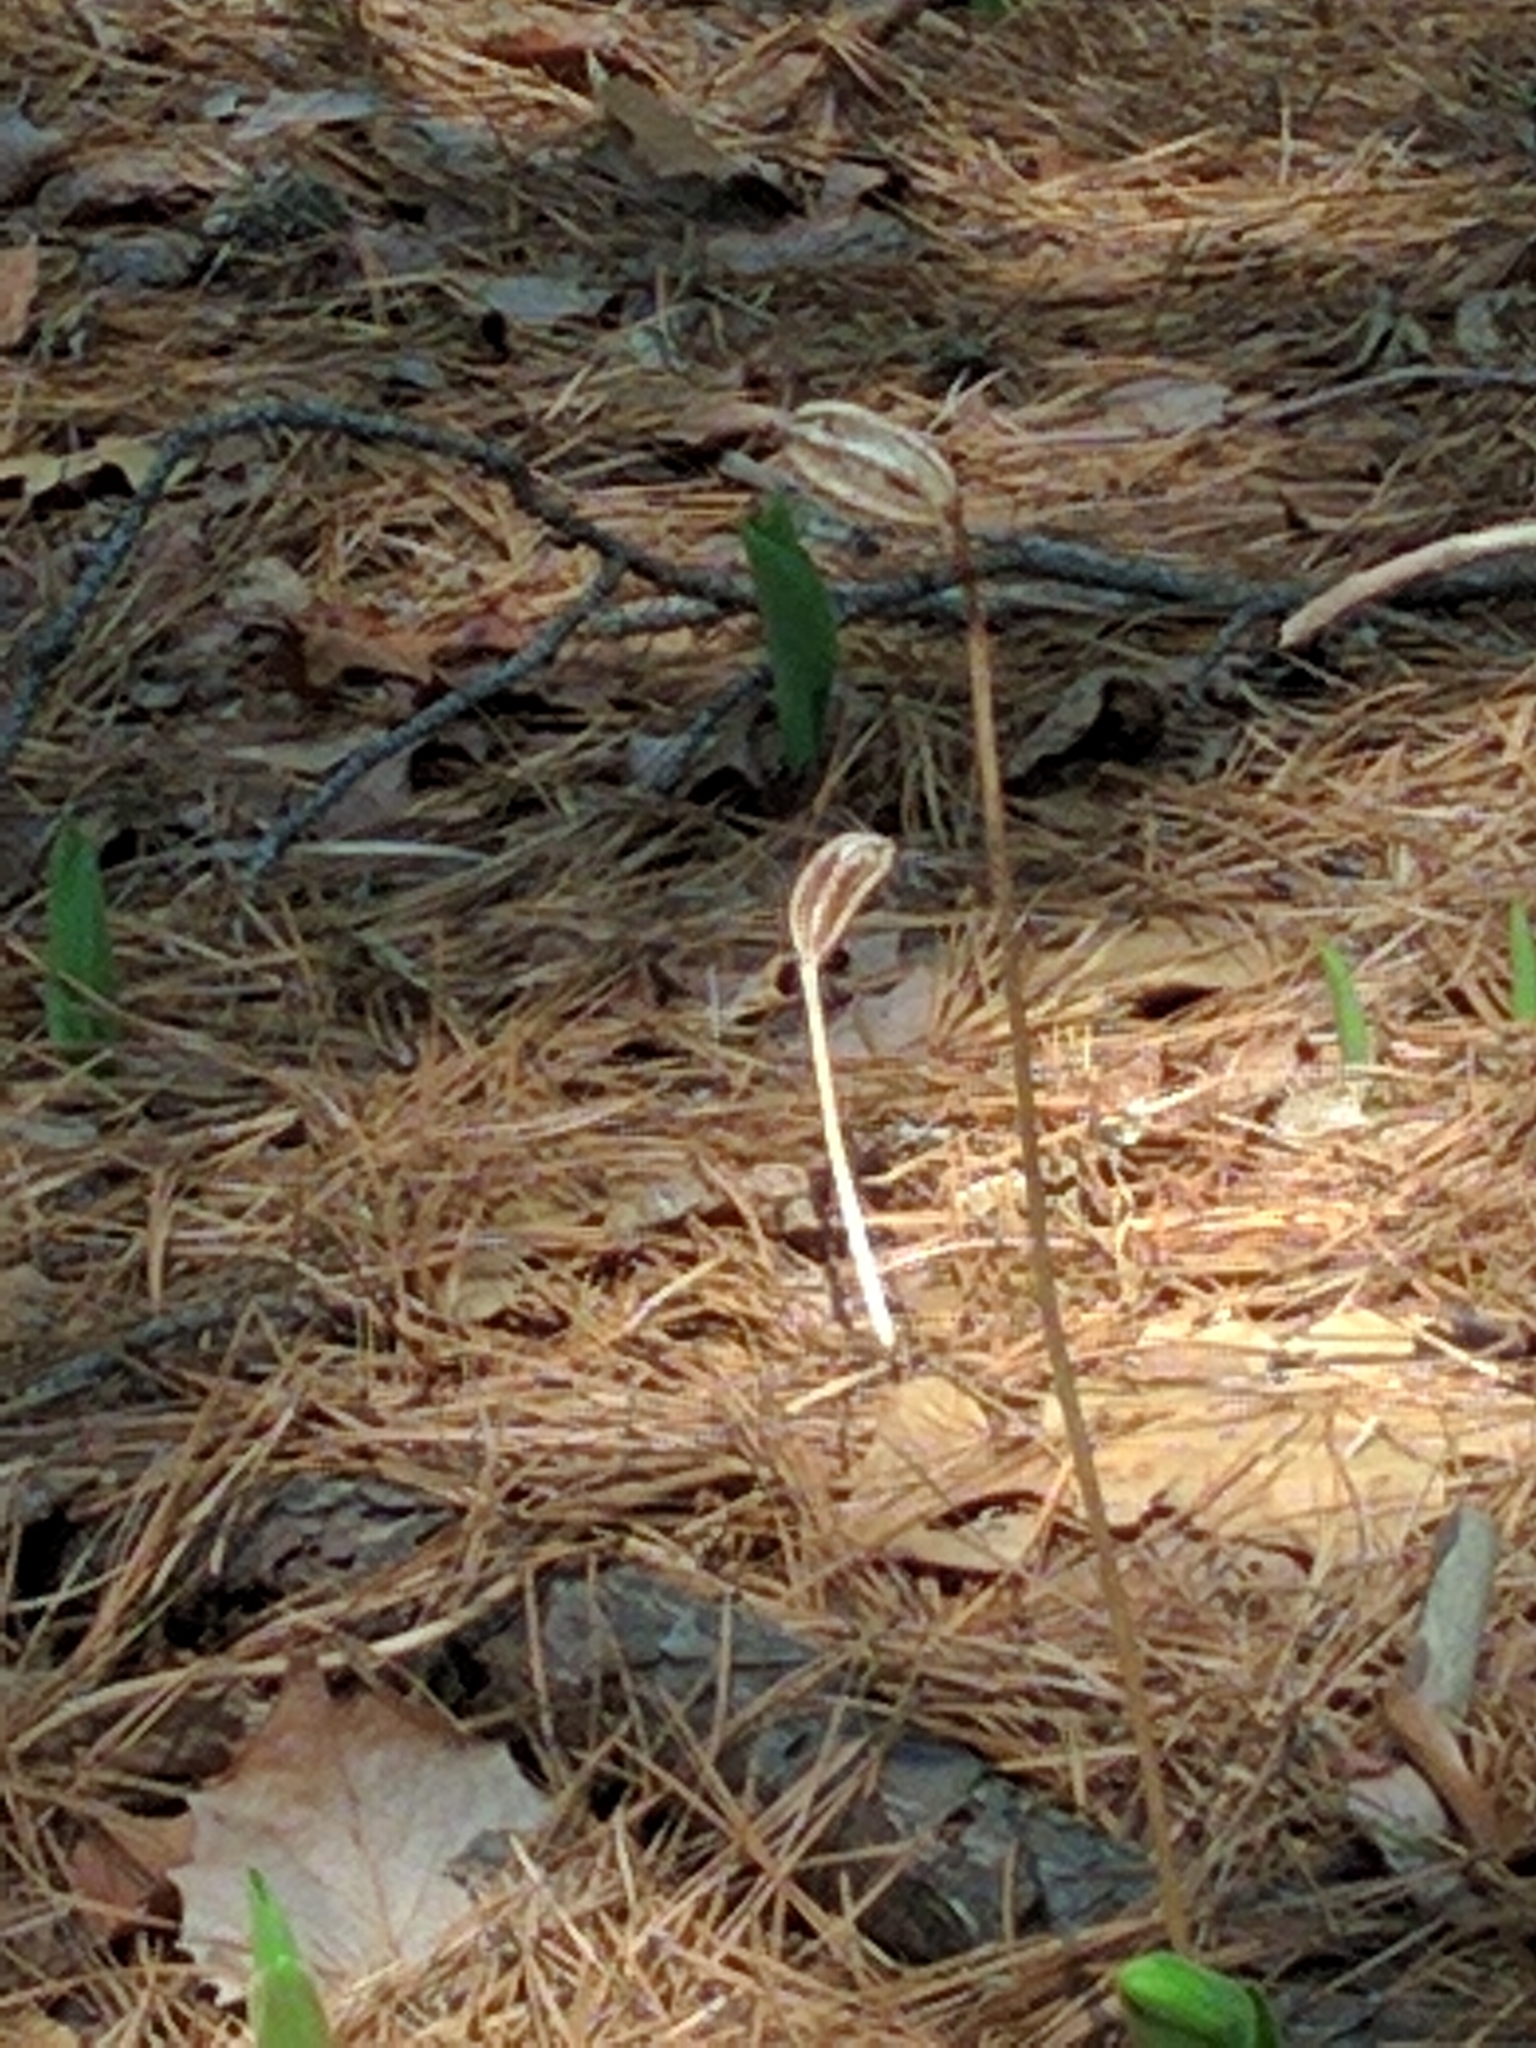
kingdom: Plantae
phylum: Tracheophyta
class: Liliopsida
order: Asparagales
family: Orchidaceae
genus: Cypripedium
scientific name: Cypripedium acaule
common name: Pink lady's-slipper
